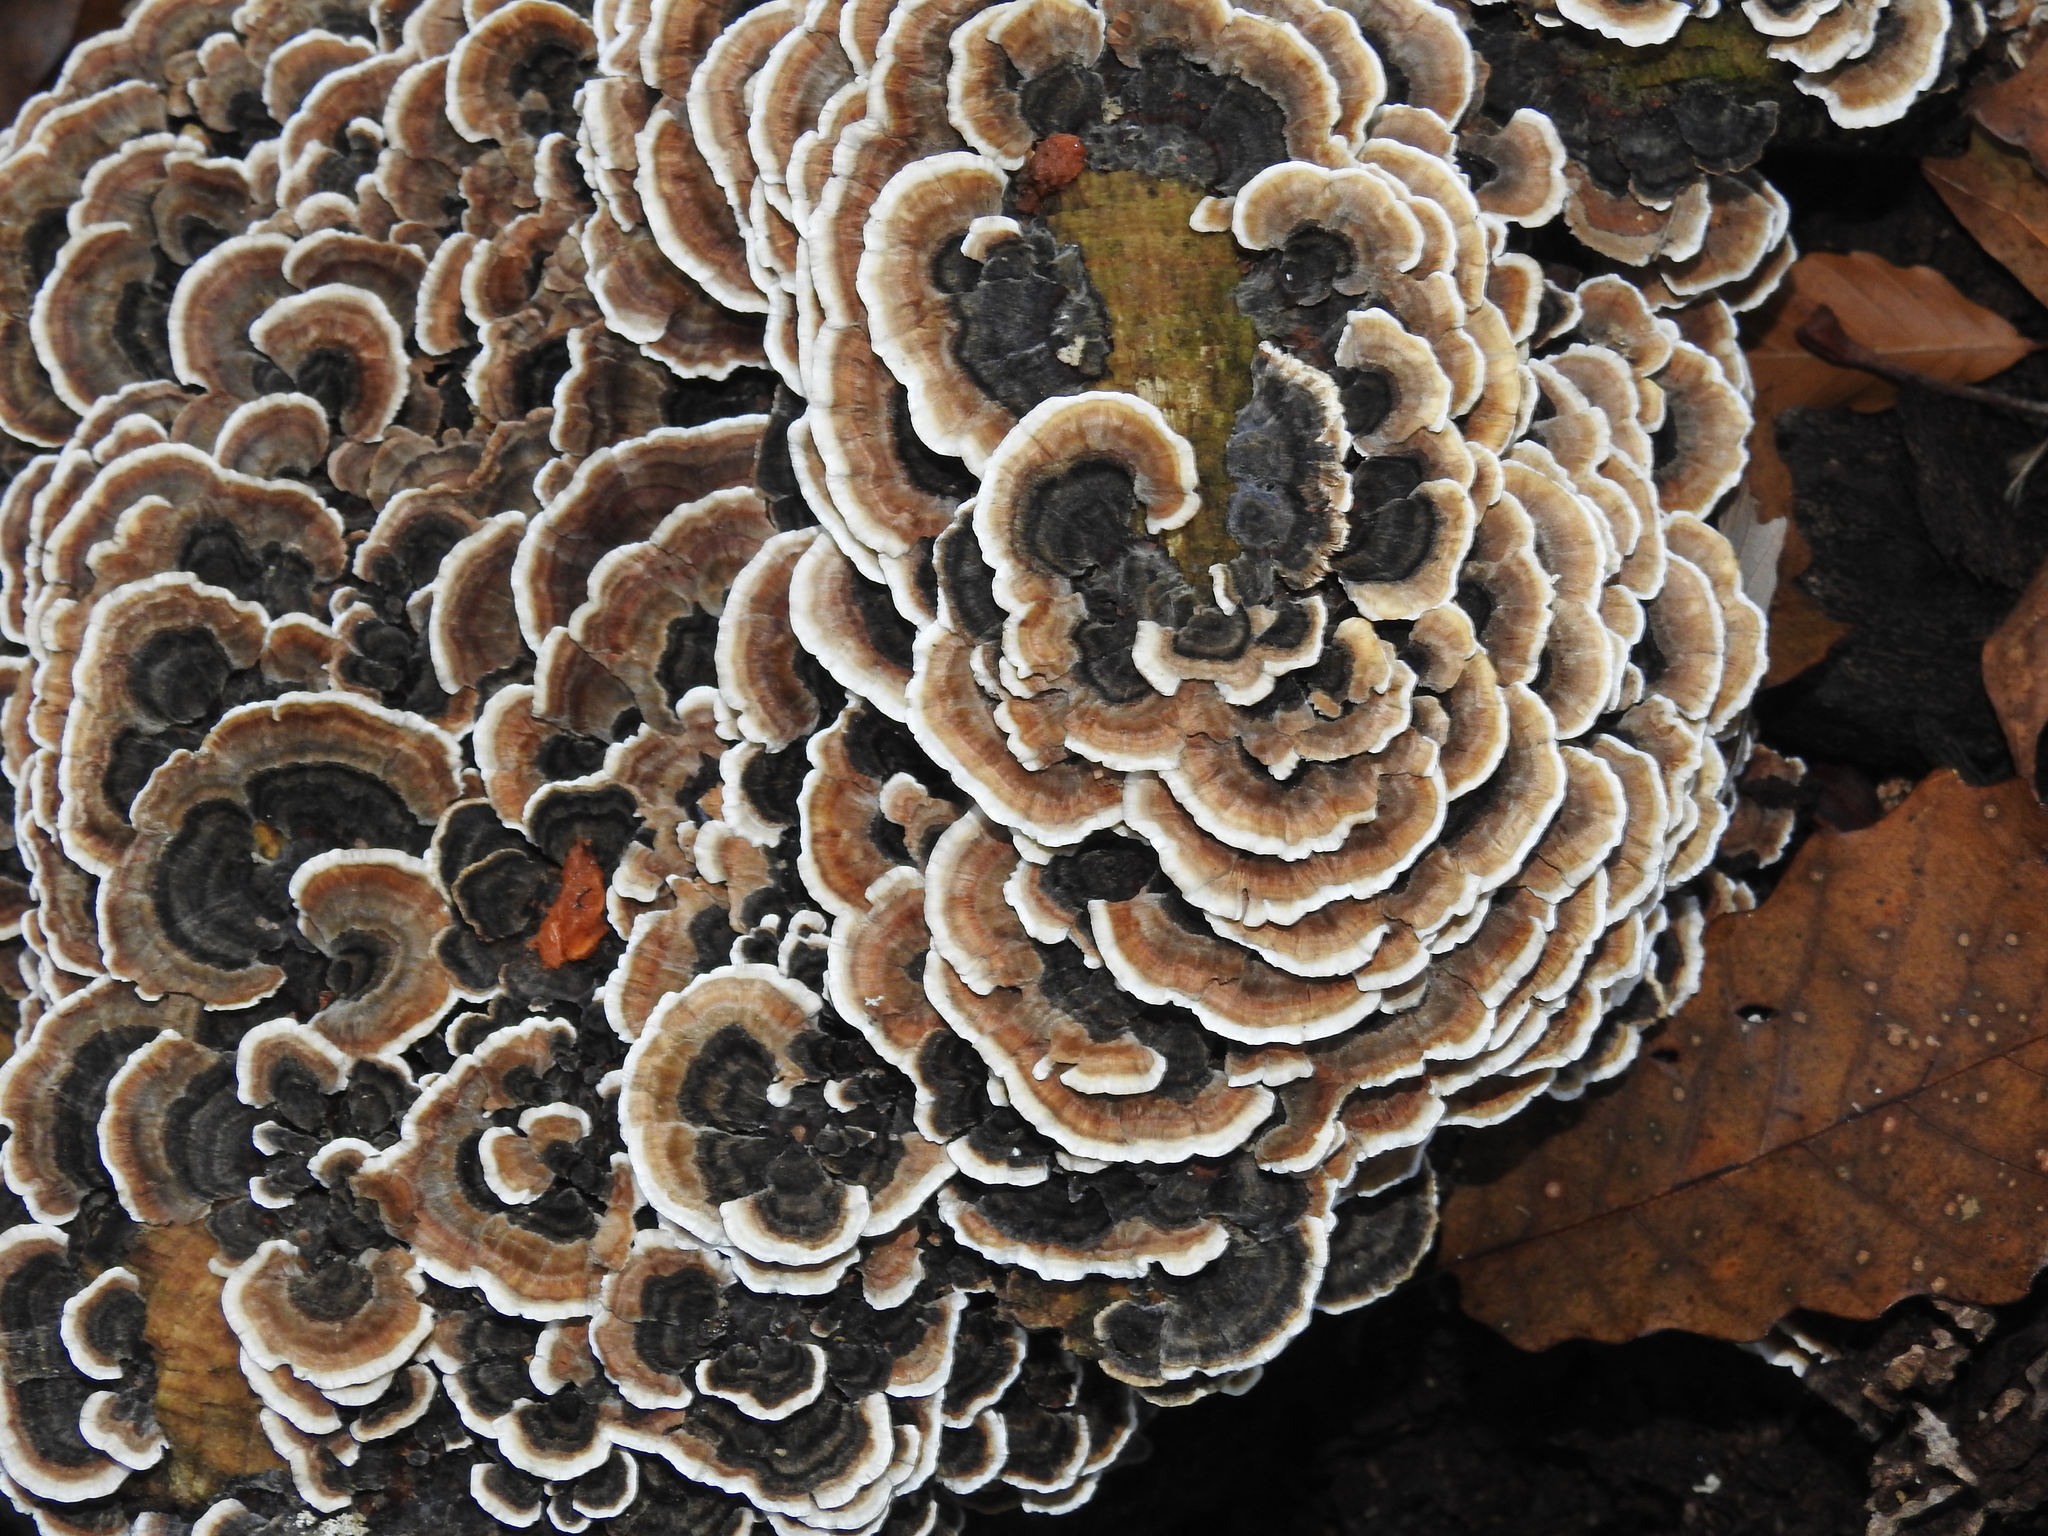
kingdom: Fungi
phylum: Basidiomycota
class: Agaricomycetes
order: Polyporales
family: Polyporaceae
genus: Trametes
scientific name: Trametes versicolor
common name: Turkeytail
